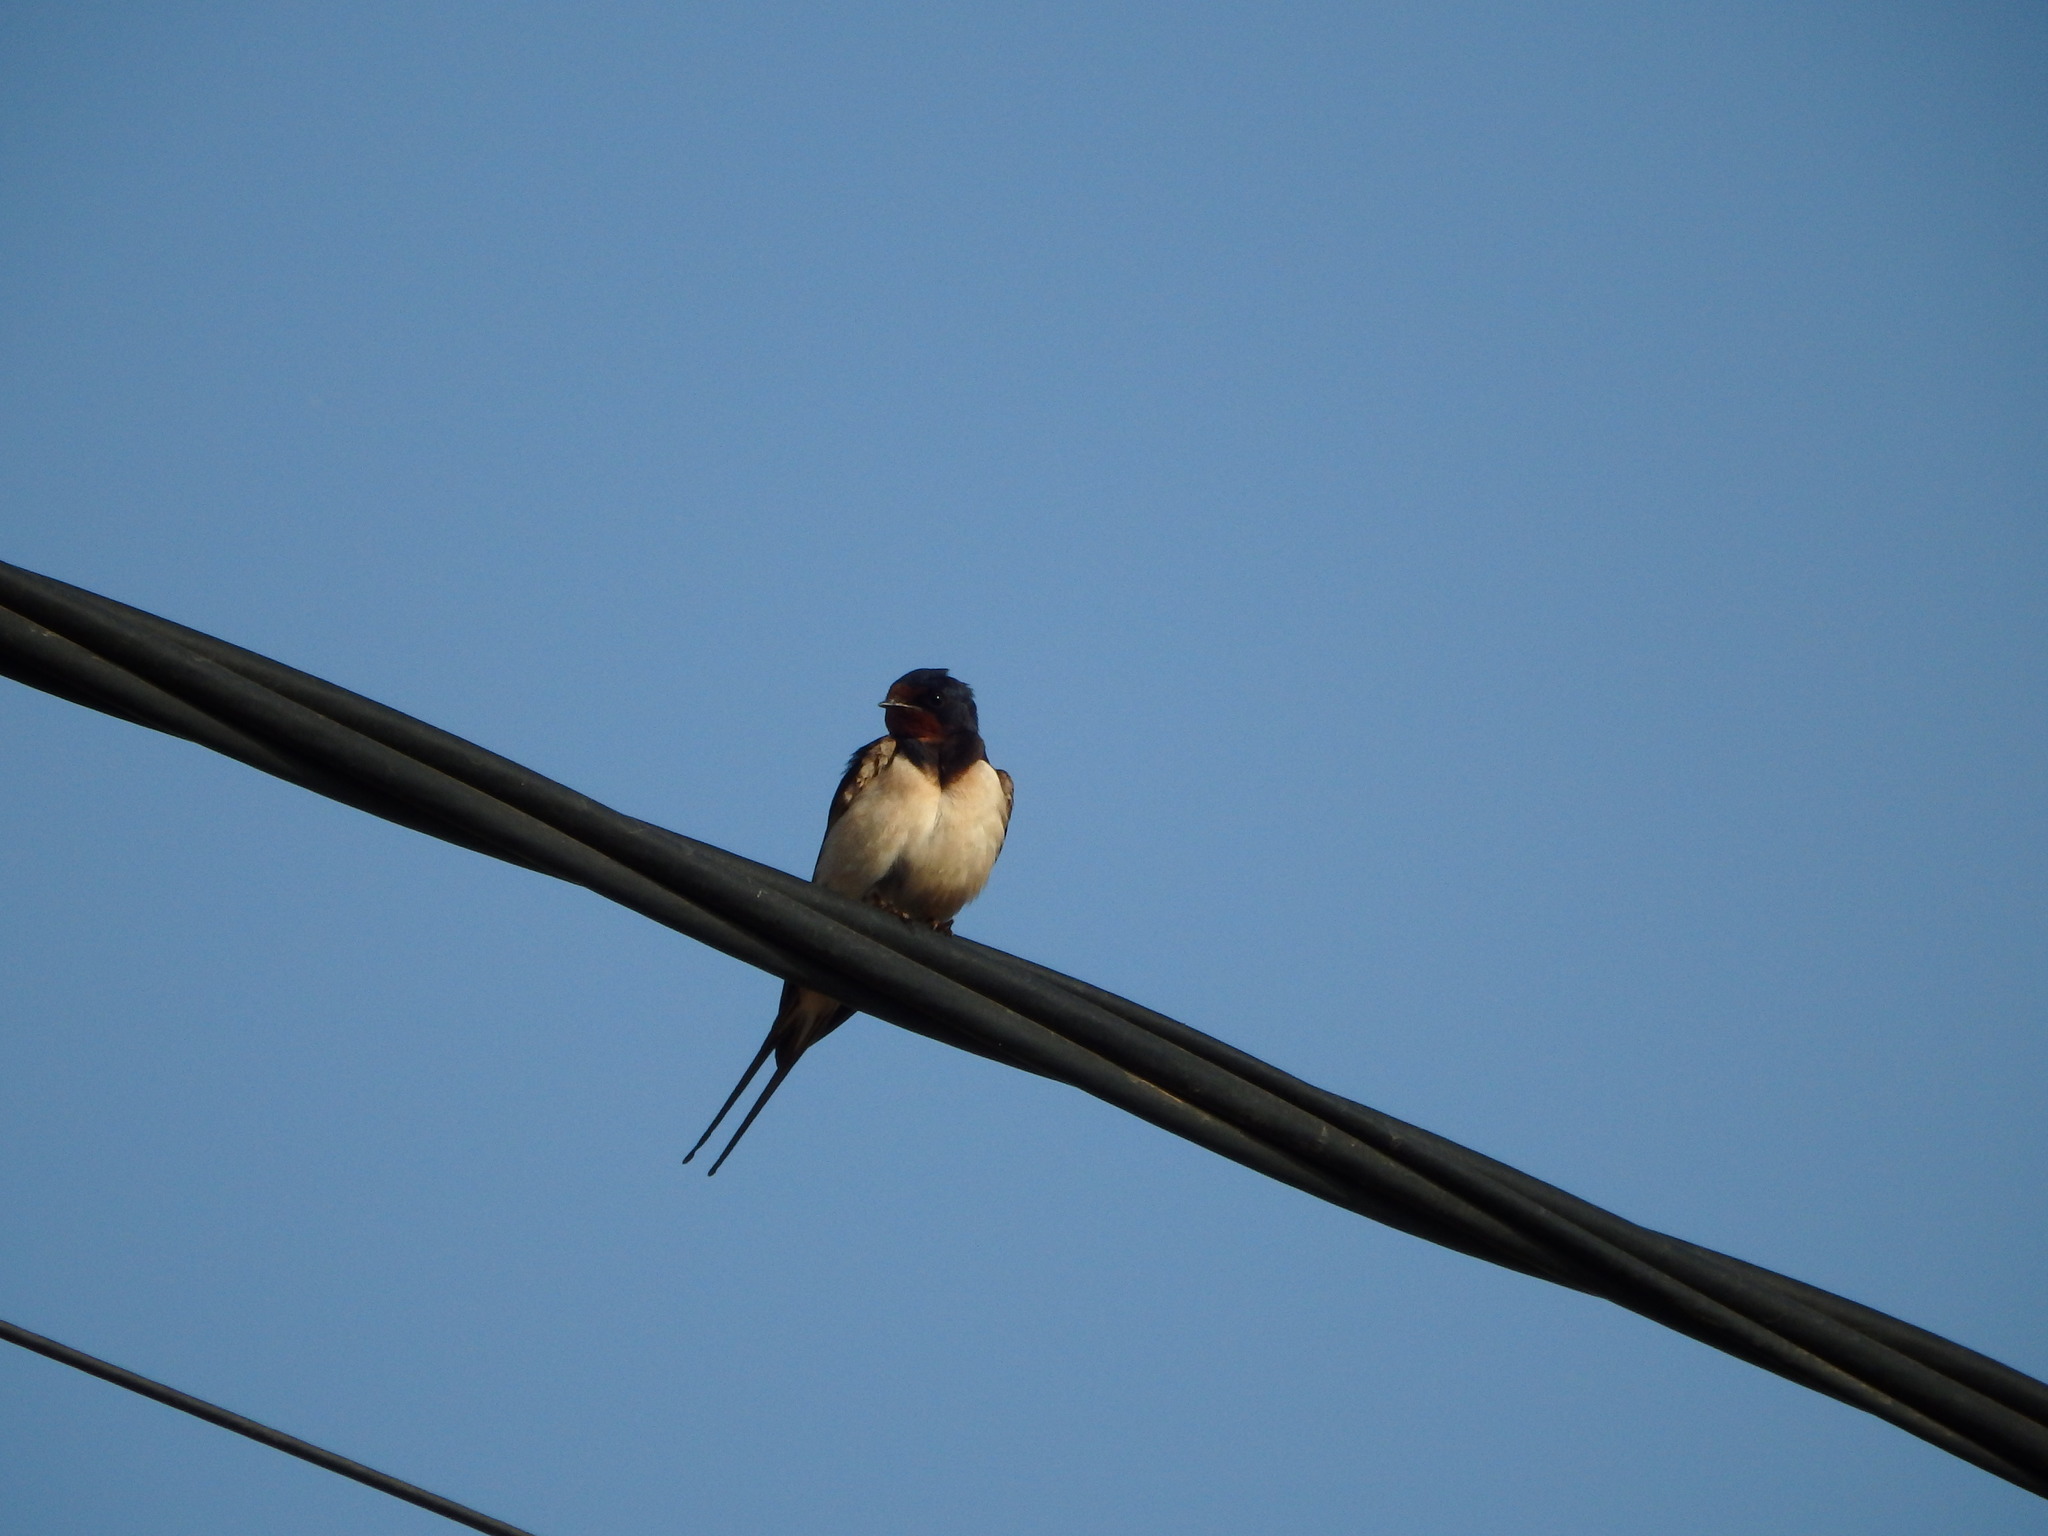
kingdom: Animalia
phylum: Chordata
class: Aves
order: Passeriformes
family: Hirundinidae
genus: Hirundo
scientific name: Hirundo rustica
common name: Barn swallow
